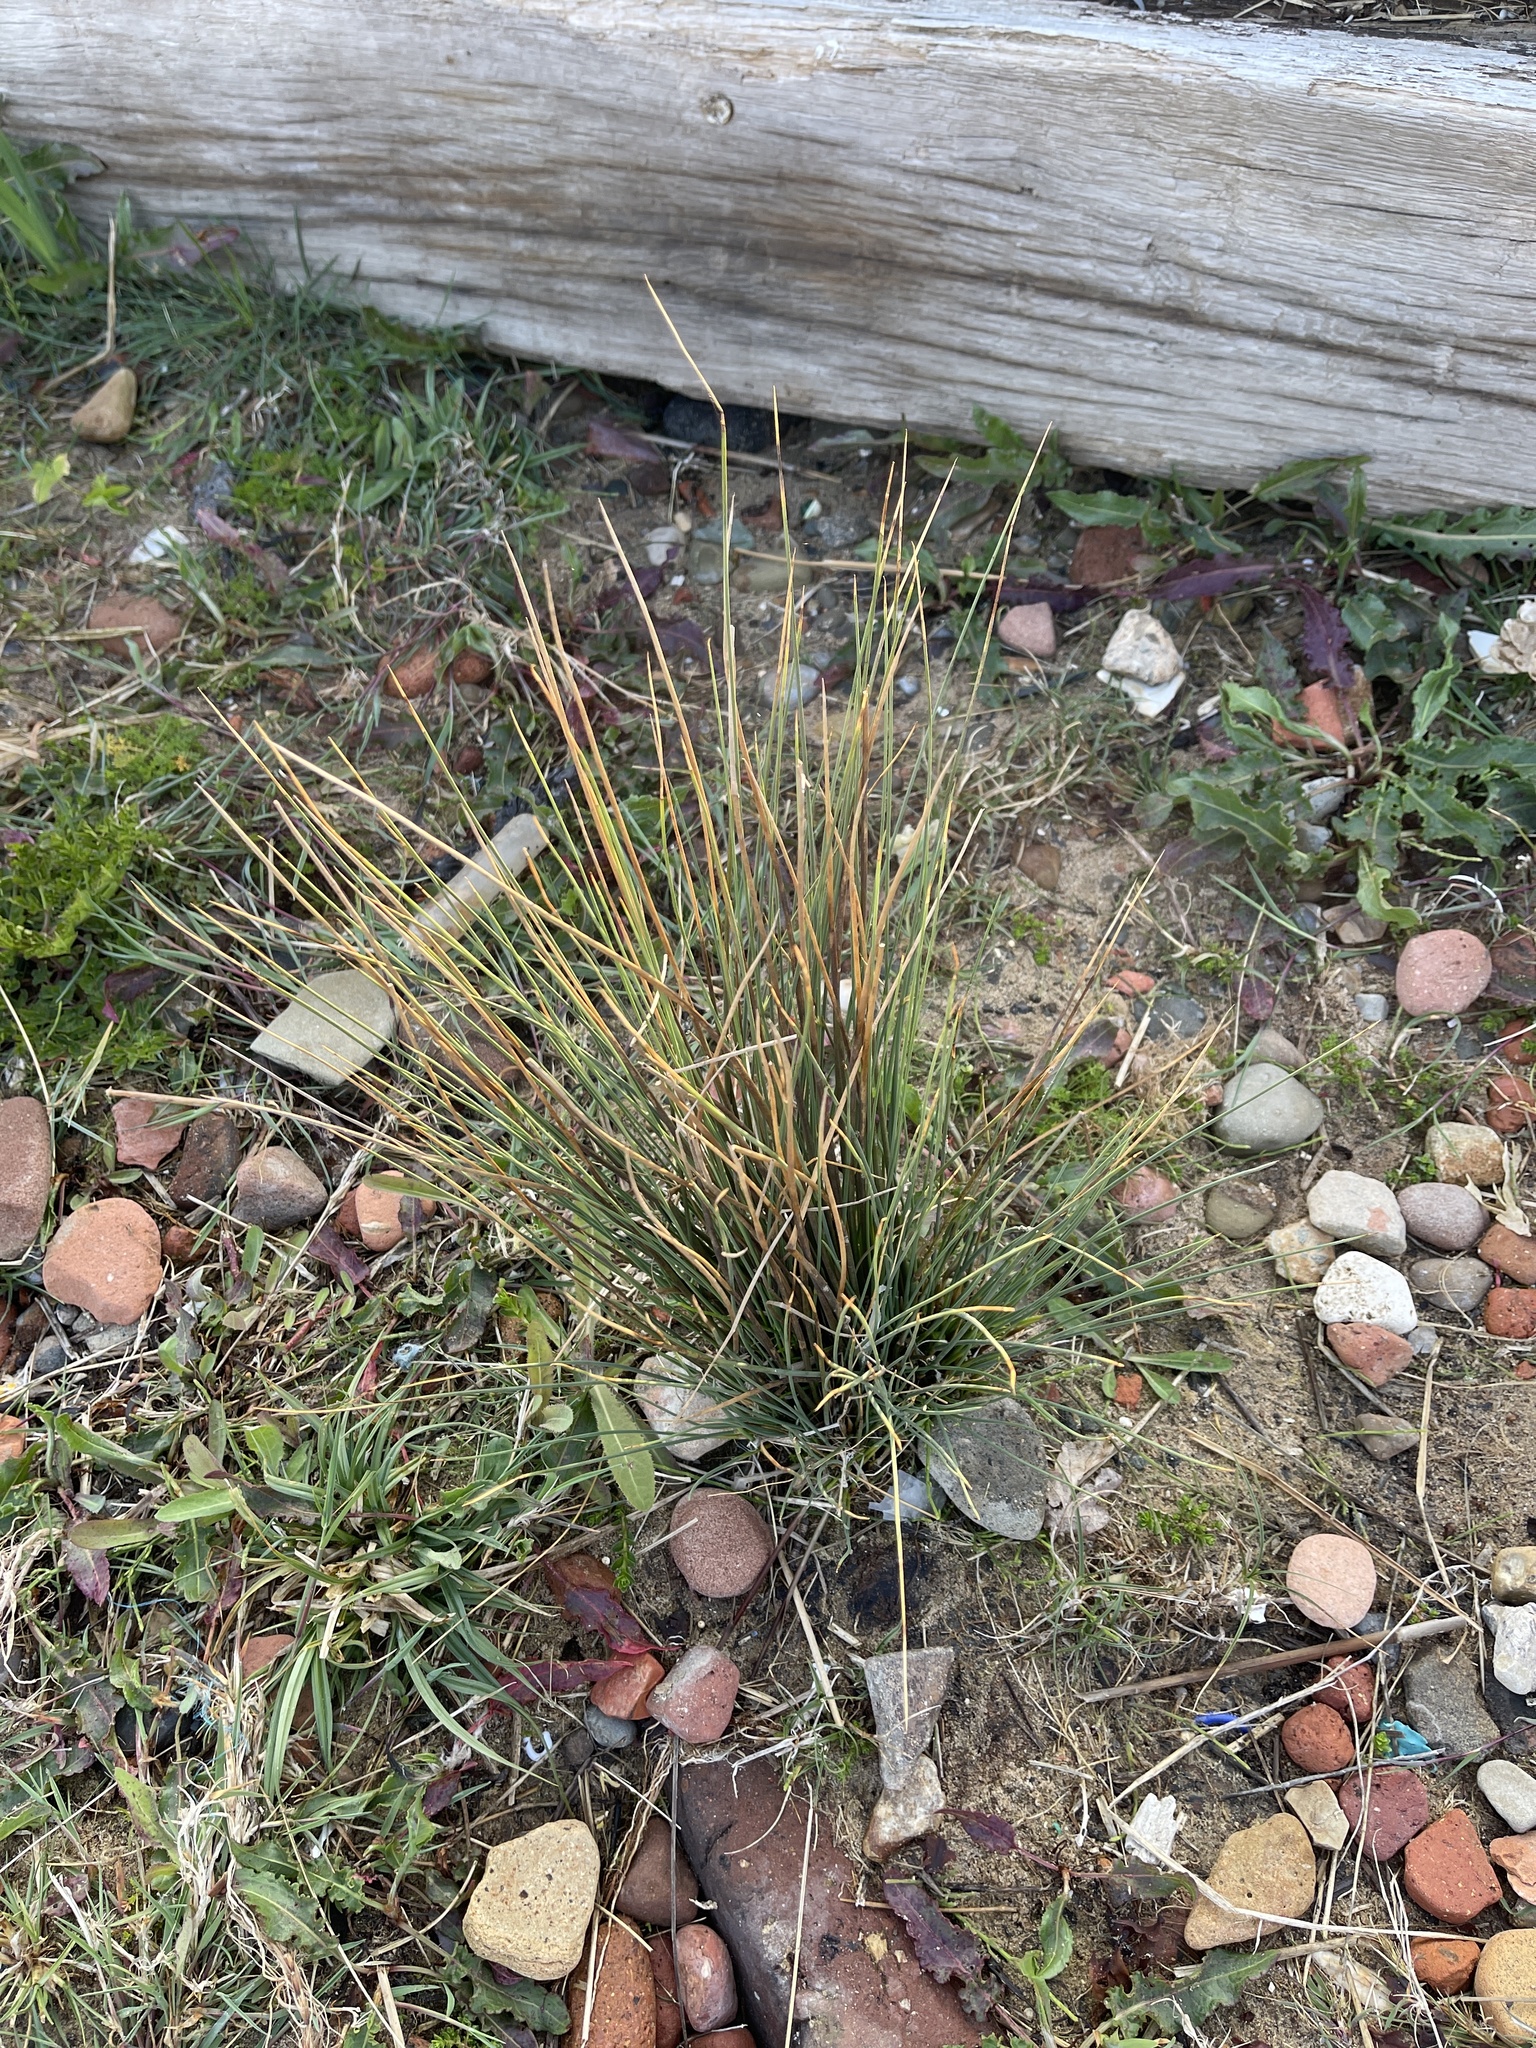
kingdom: Plantae
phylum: Tracheophyta
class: Liliopsida
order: Poales
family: Juncaceae
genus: Juncus
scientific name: Juncus inflexus
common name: Hard rush
